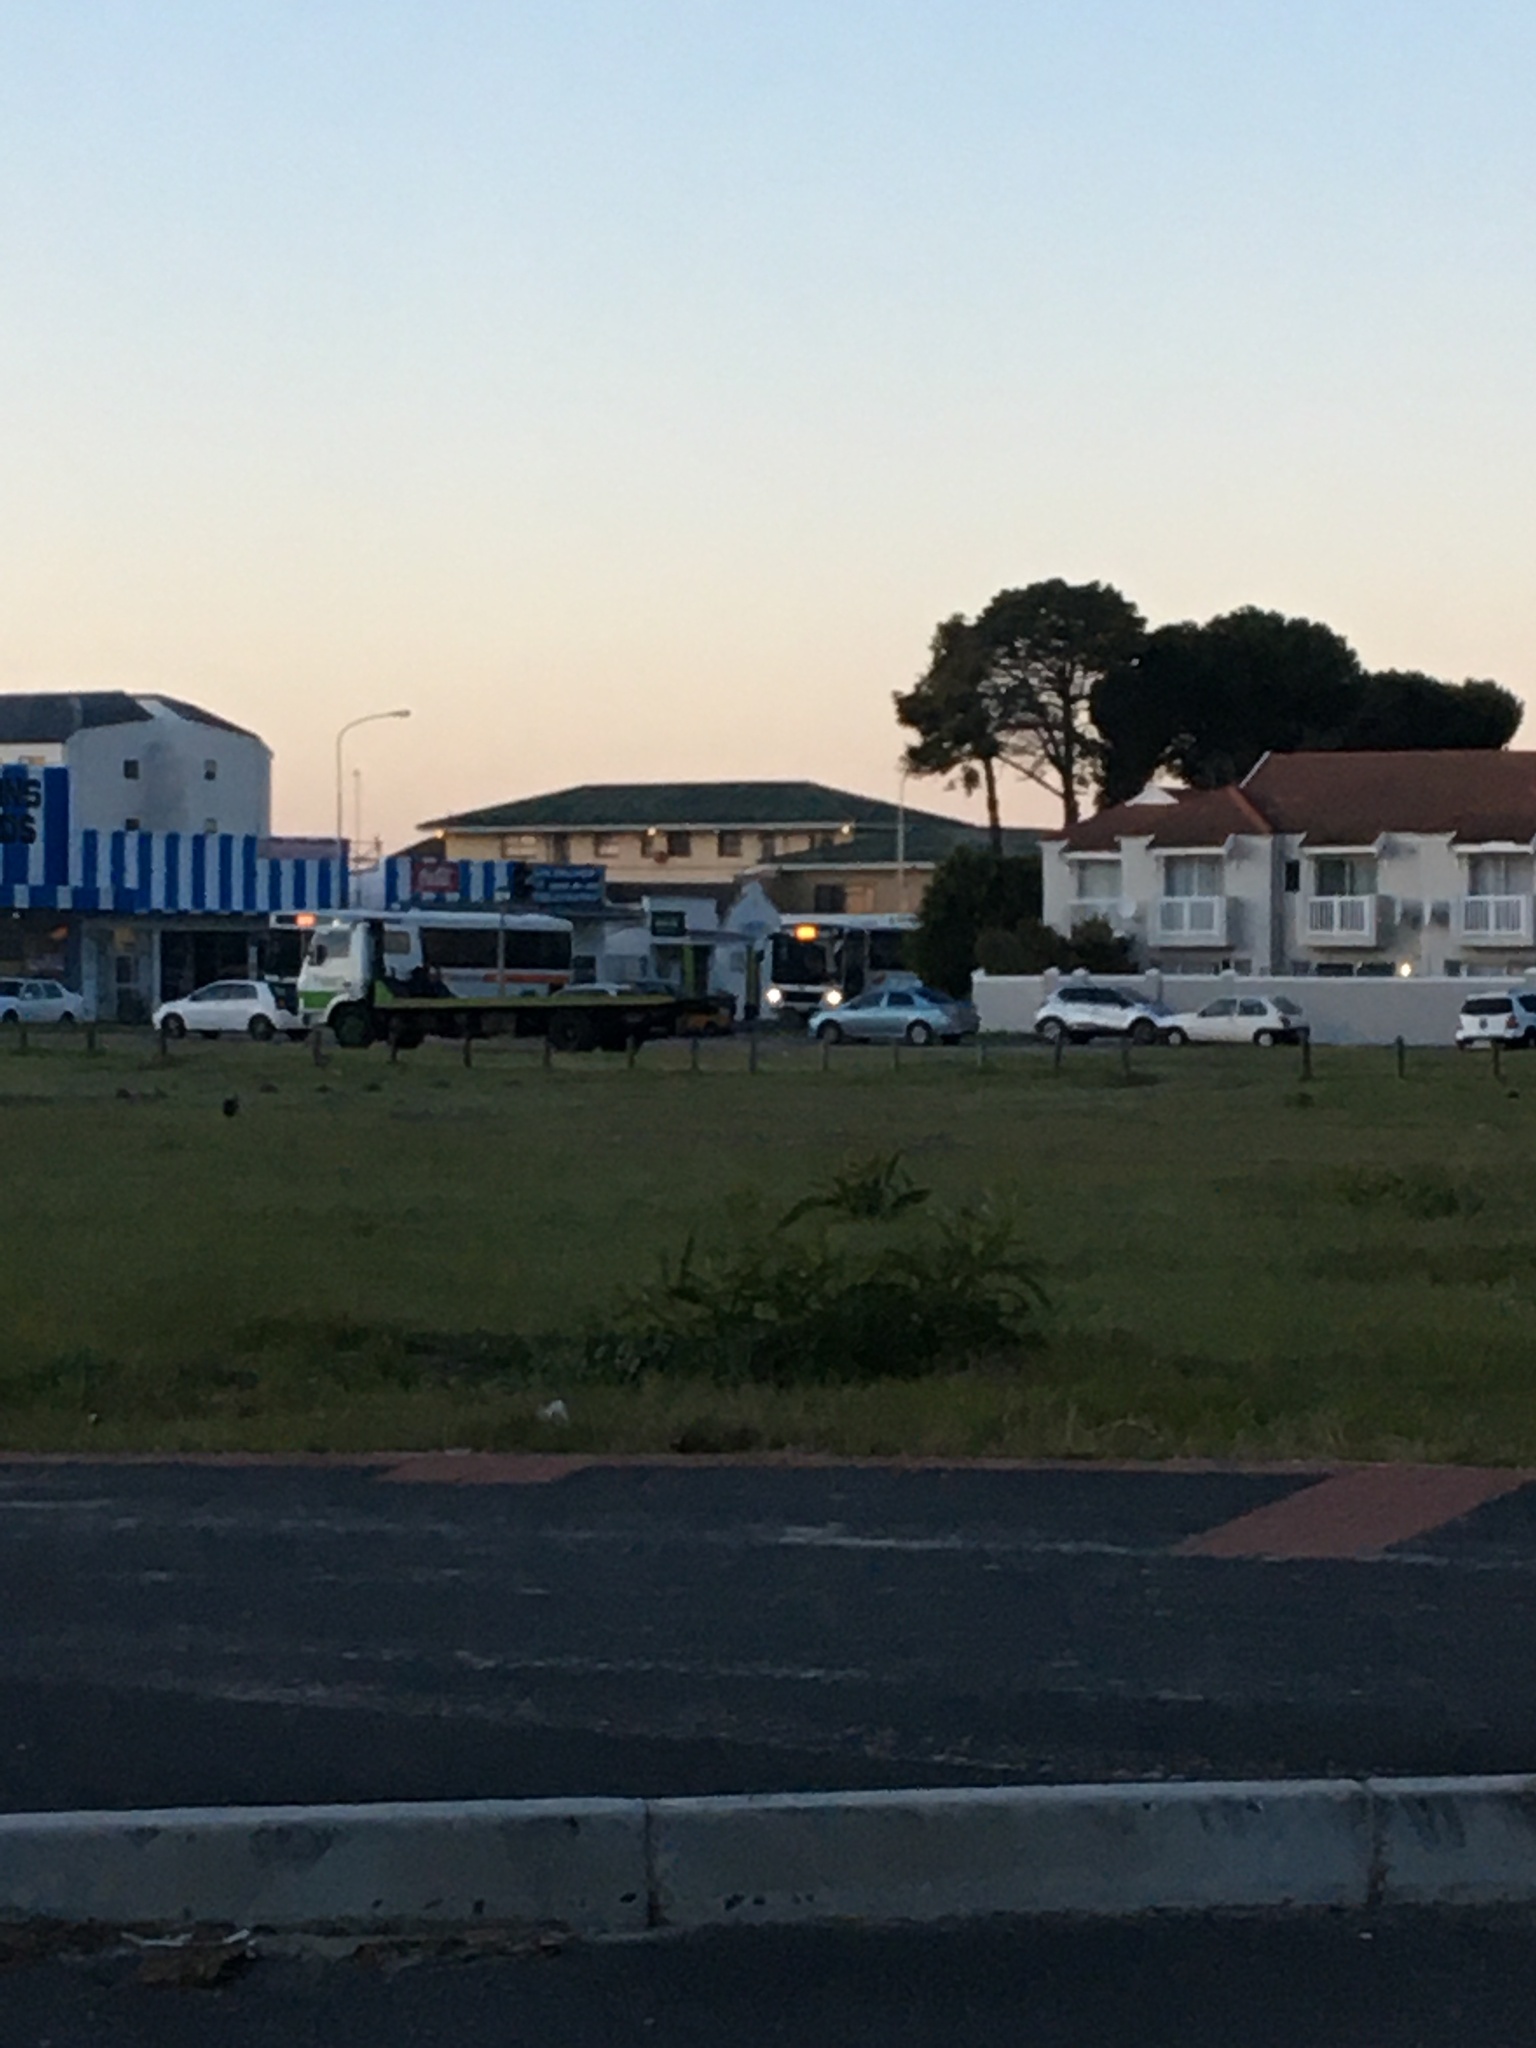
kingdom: Plantae
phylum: Tracheophyta
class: Magnoliopsida
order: Fabales
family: Fabaceae
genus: Acacia
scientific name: Acacia saligna
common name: Orange wattle
